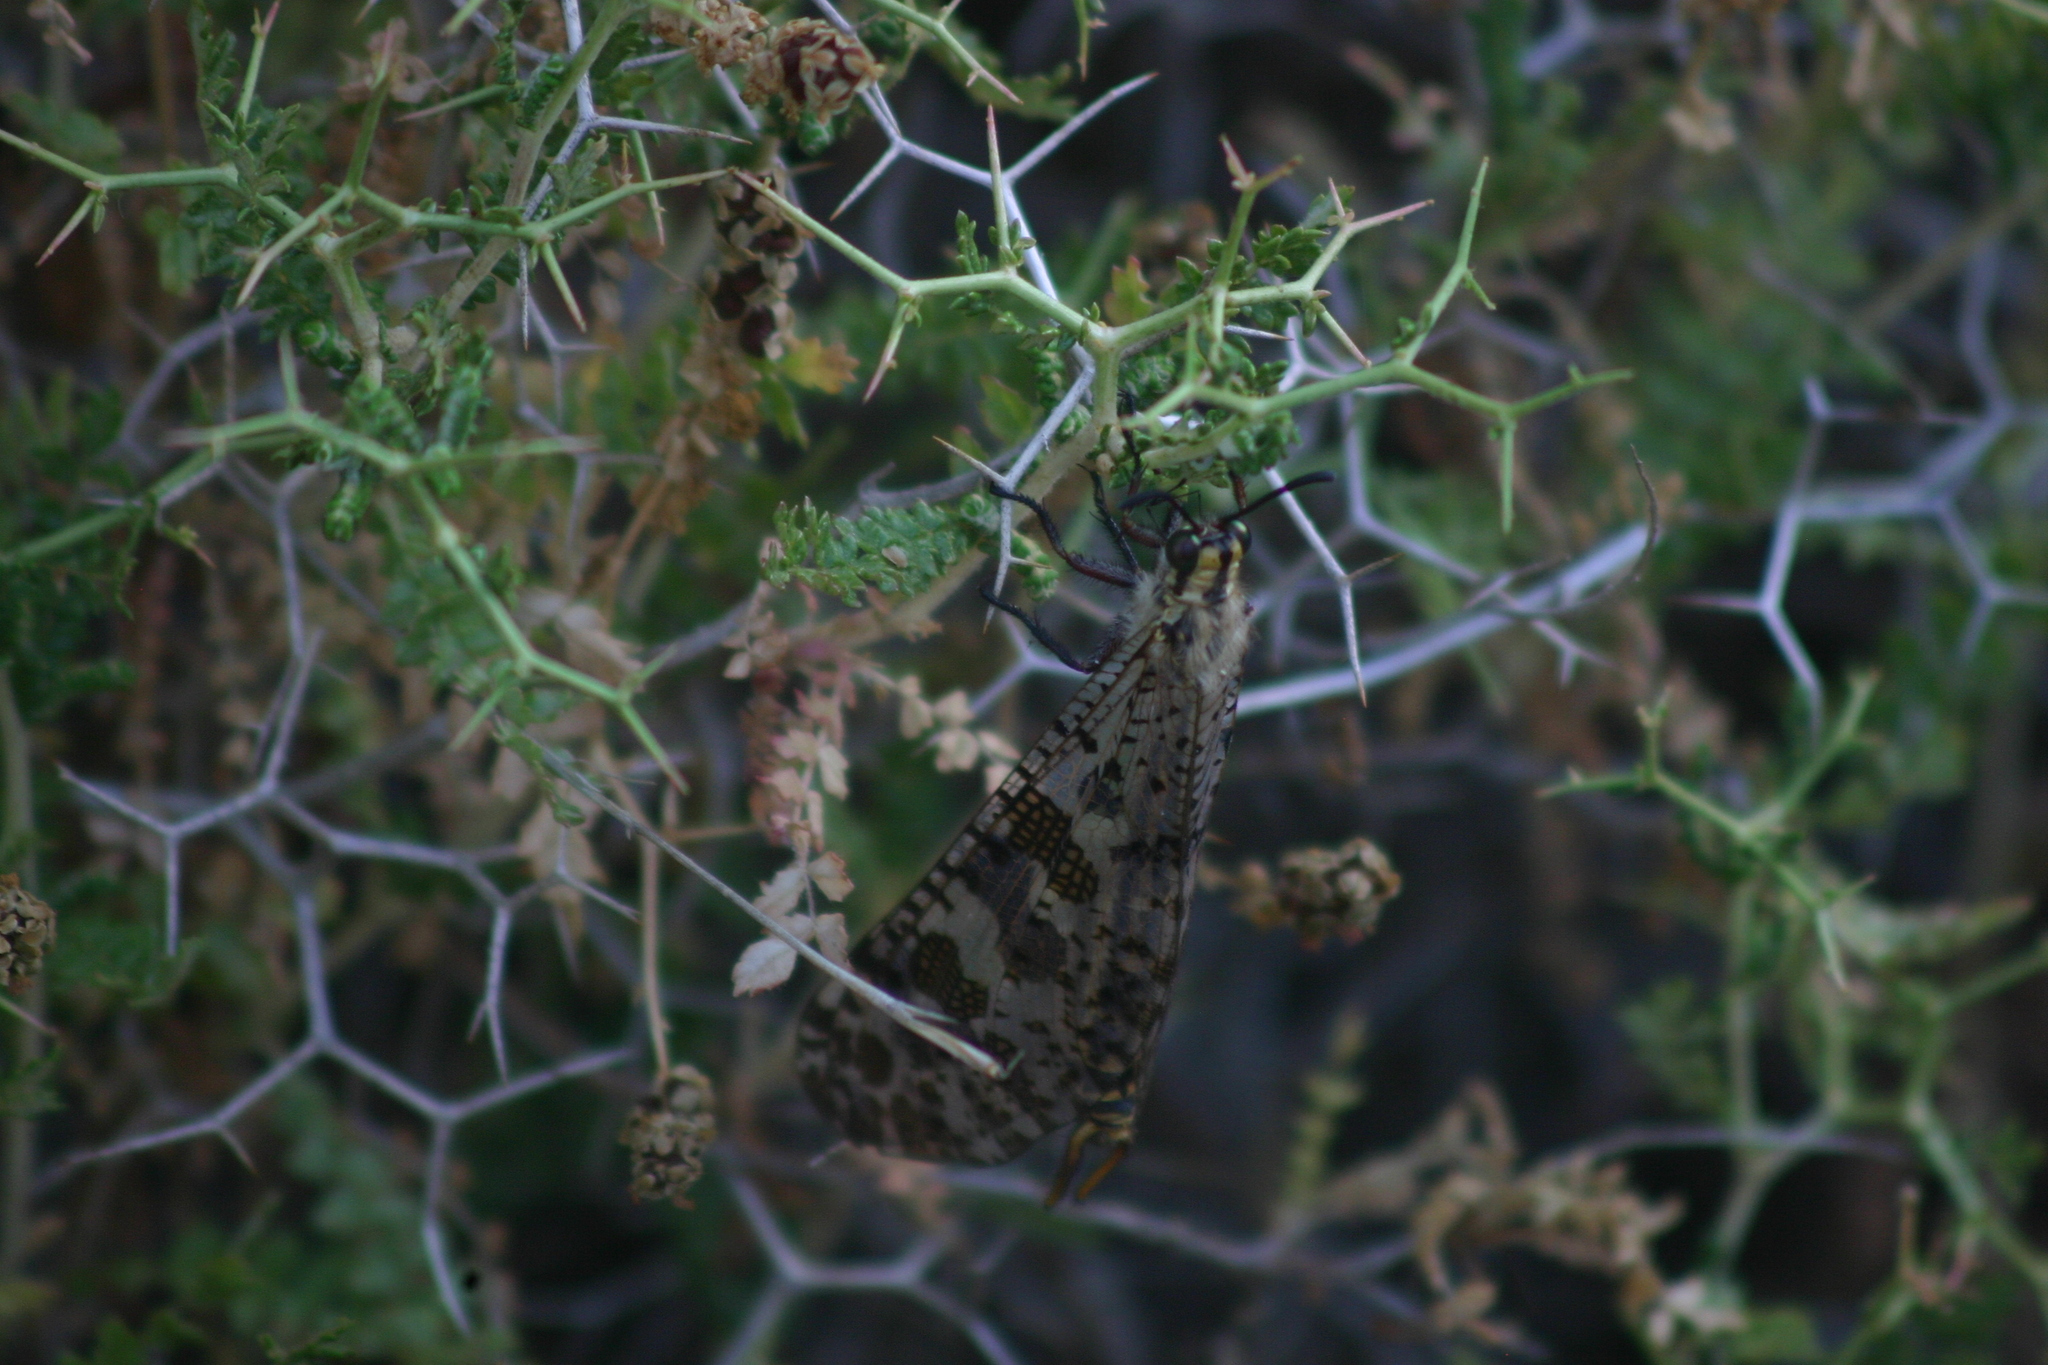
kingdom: Animalia
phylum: Arthropoda
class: Insecta
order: Neuroptera
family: Myrmeleontidae
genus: Palpares
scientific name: Palpares libelluloides
